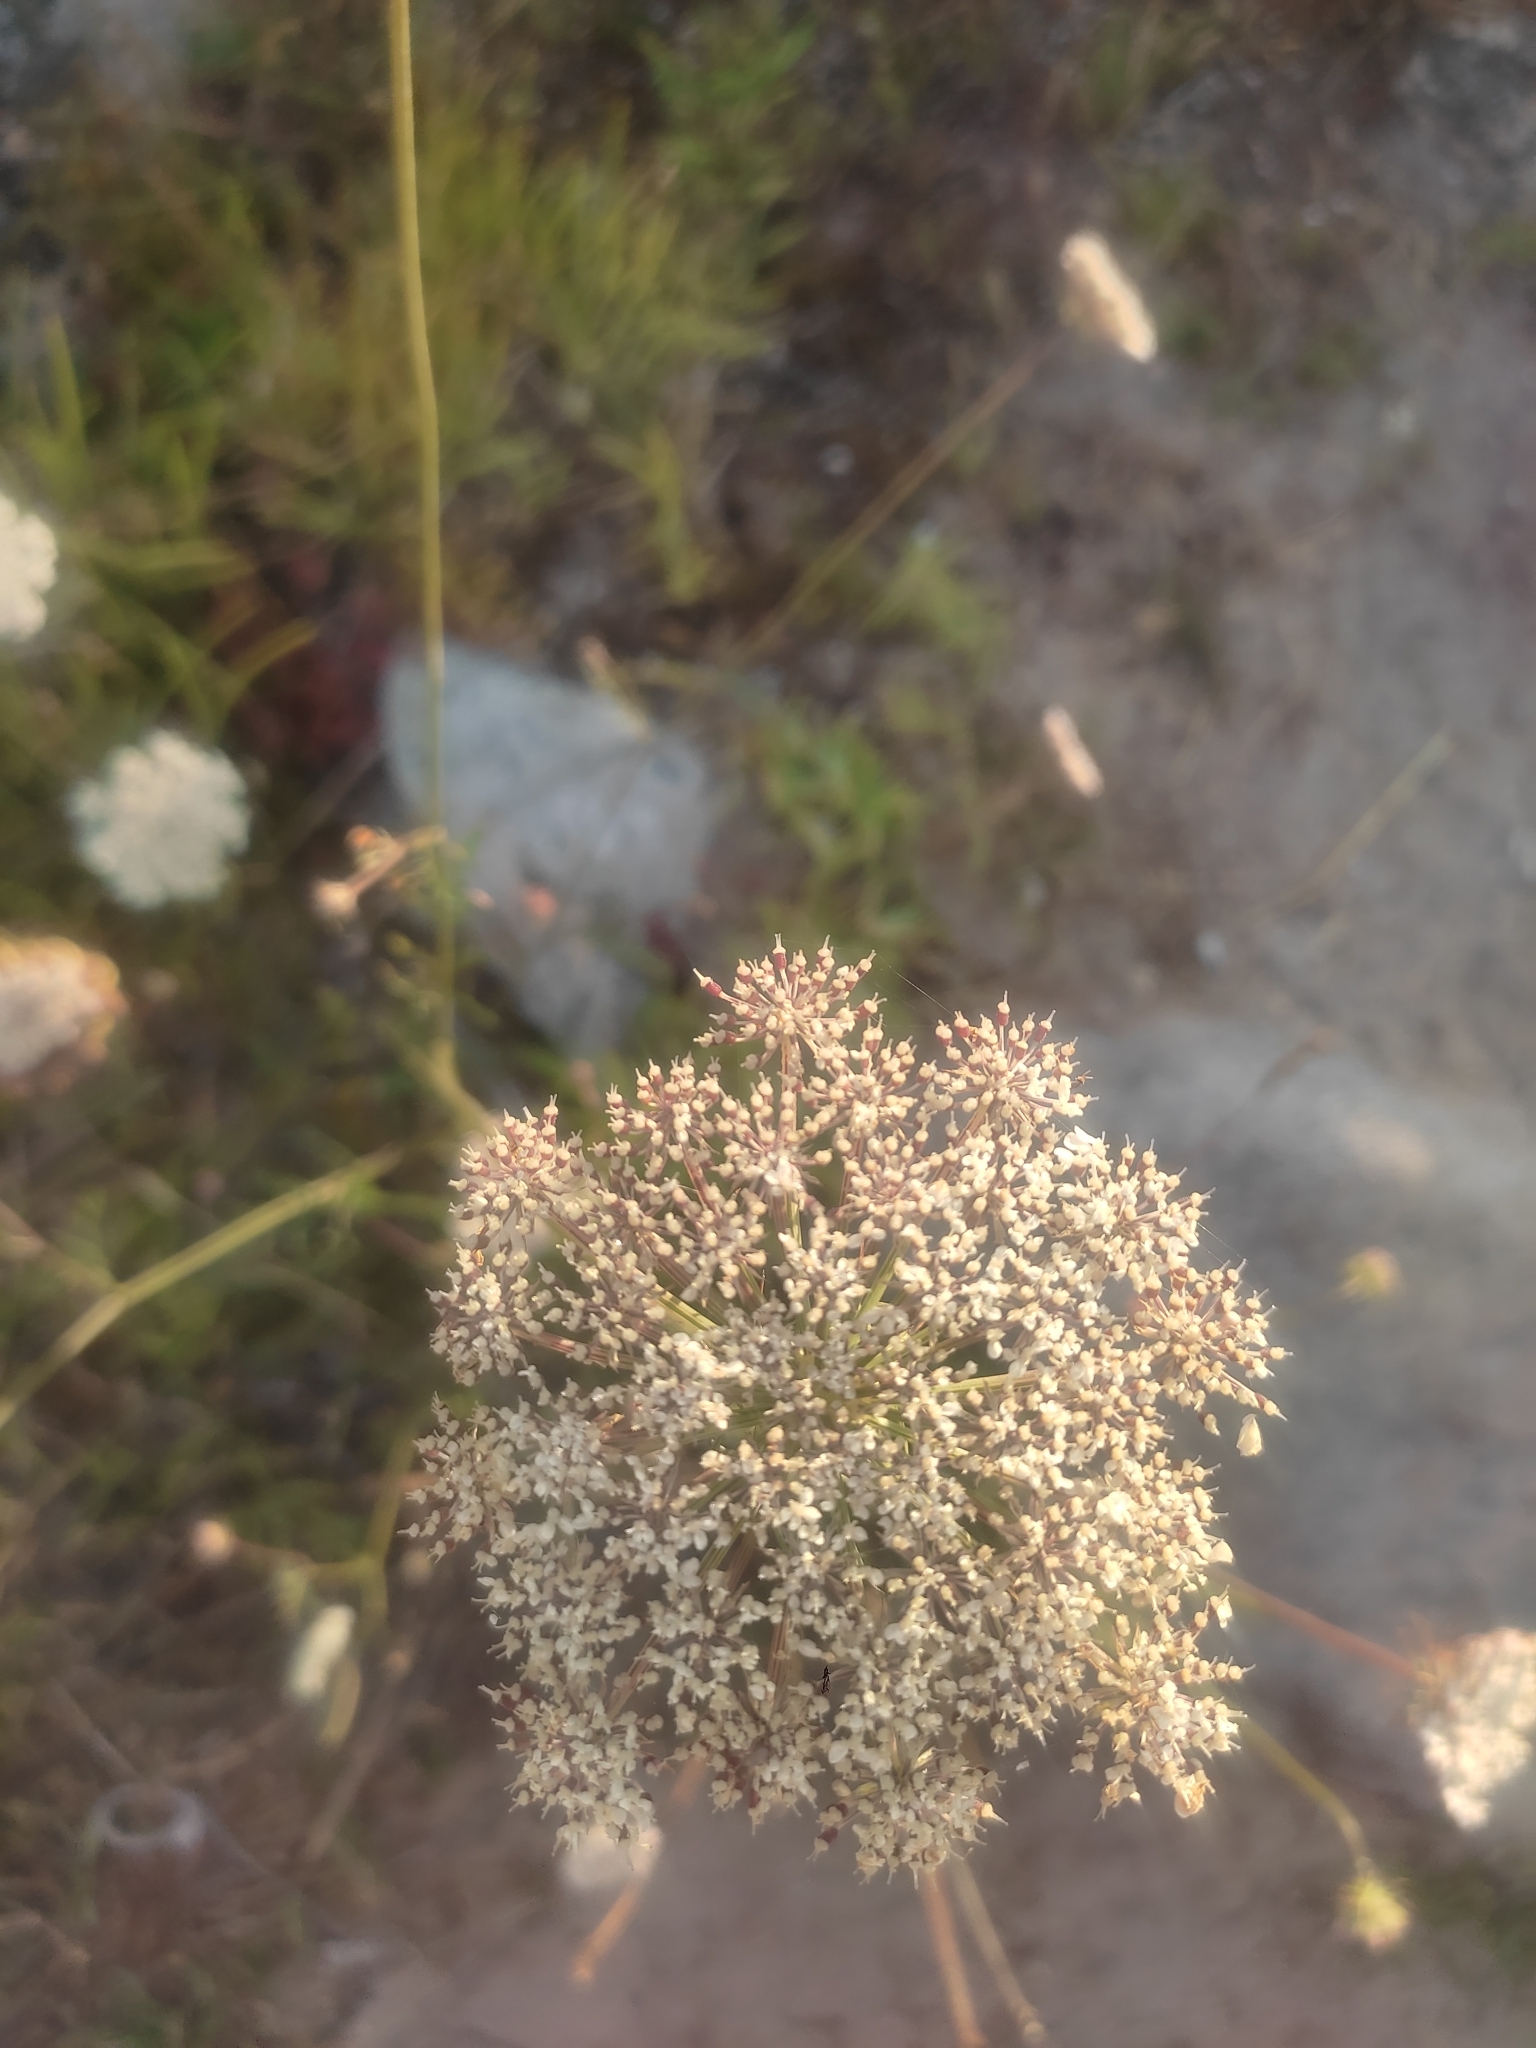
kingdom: Plantae
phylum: Tracheophyta
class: Magnoliopsida
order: Apiales
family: Apiaceae
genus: Daucus
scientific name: Daucus carota
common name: Wild carrot
